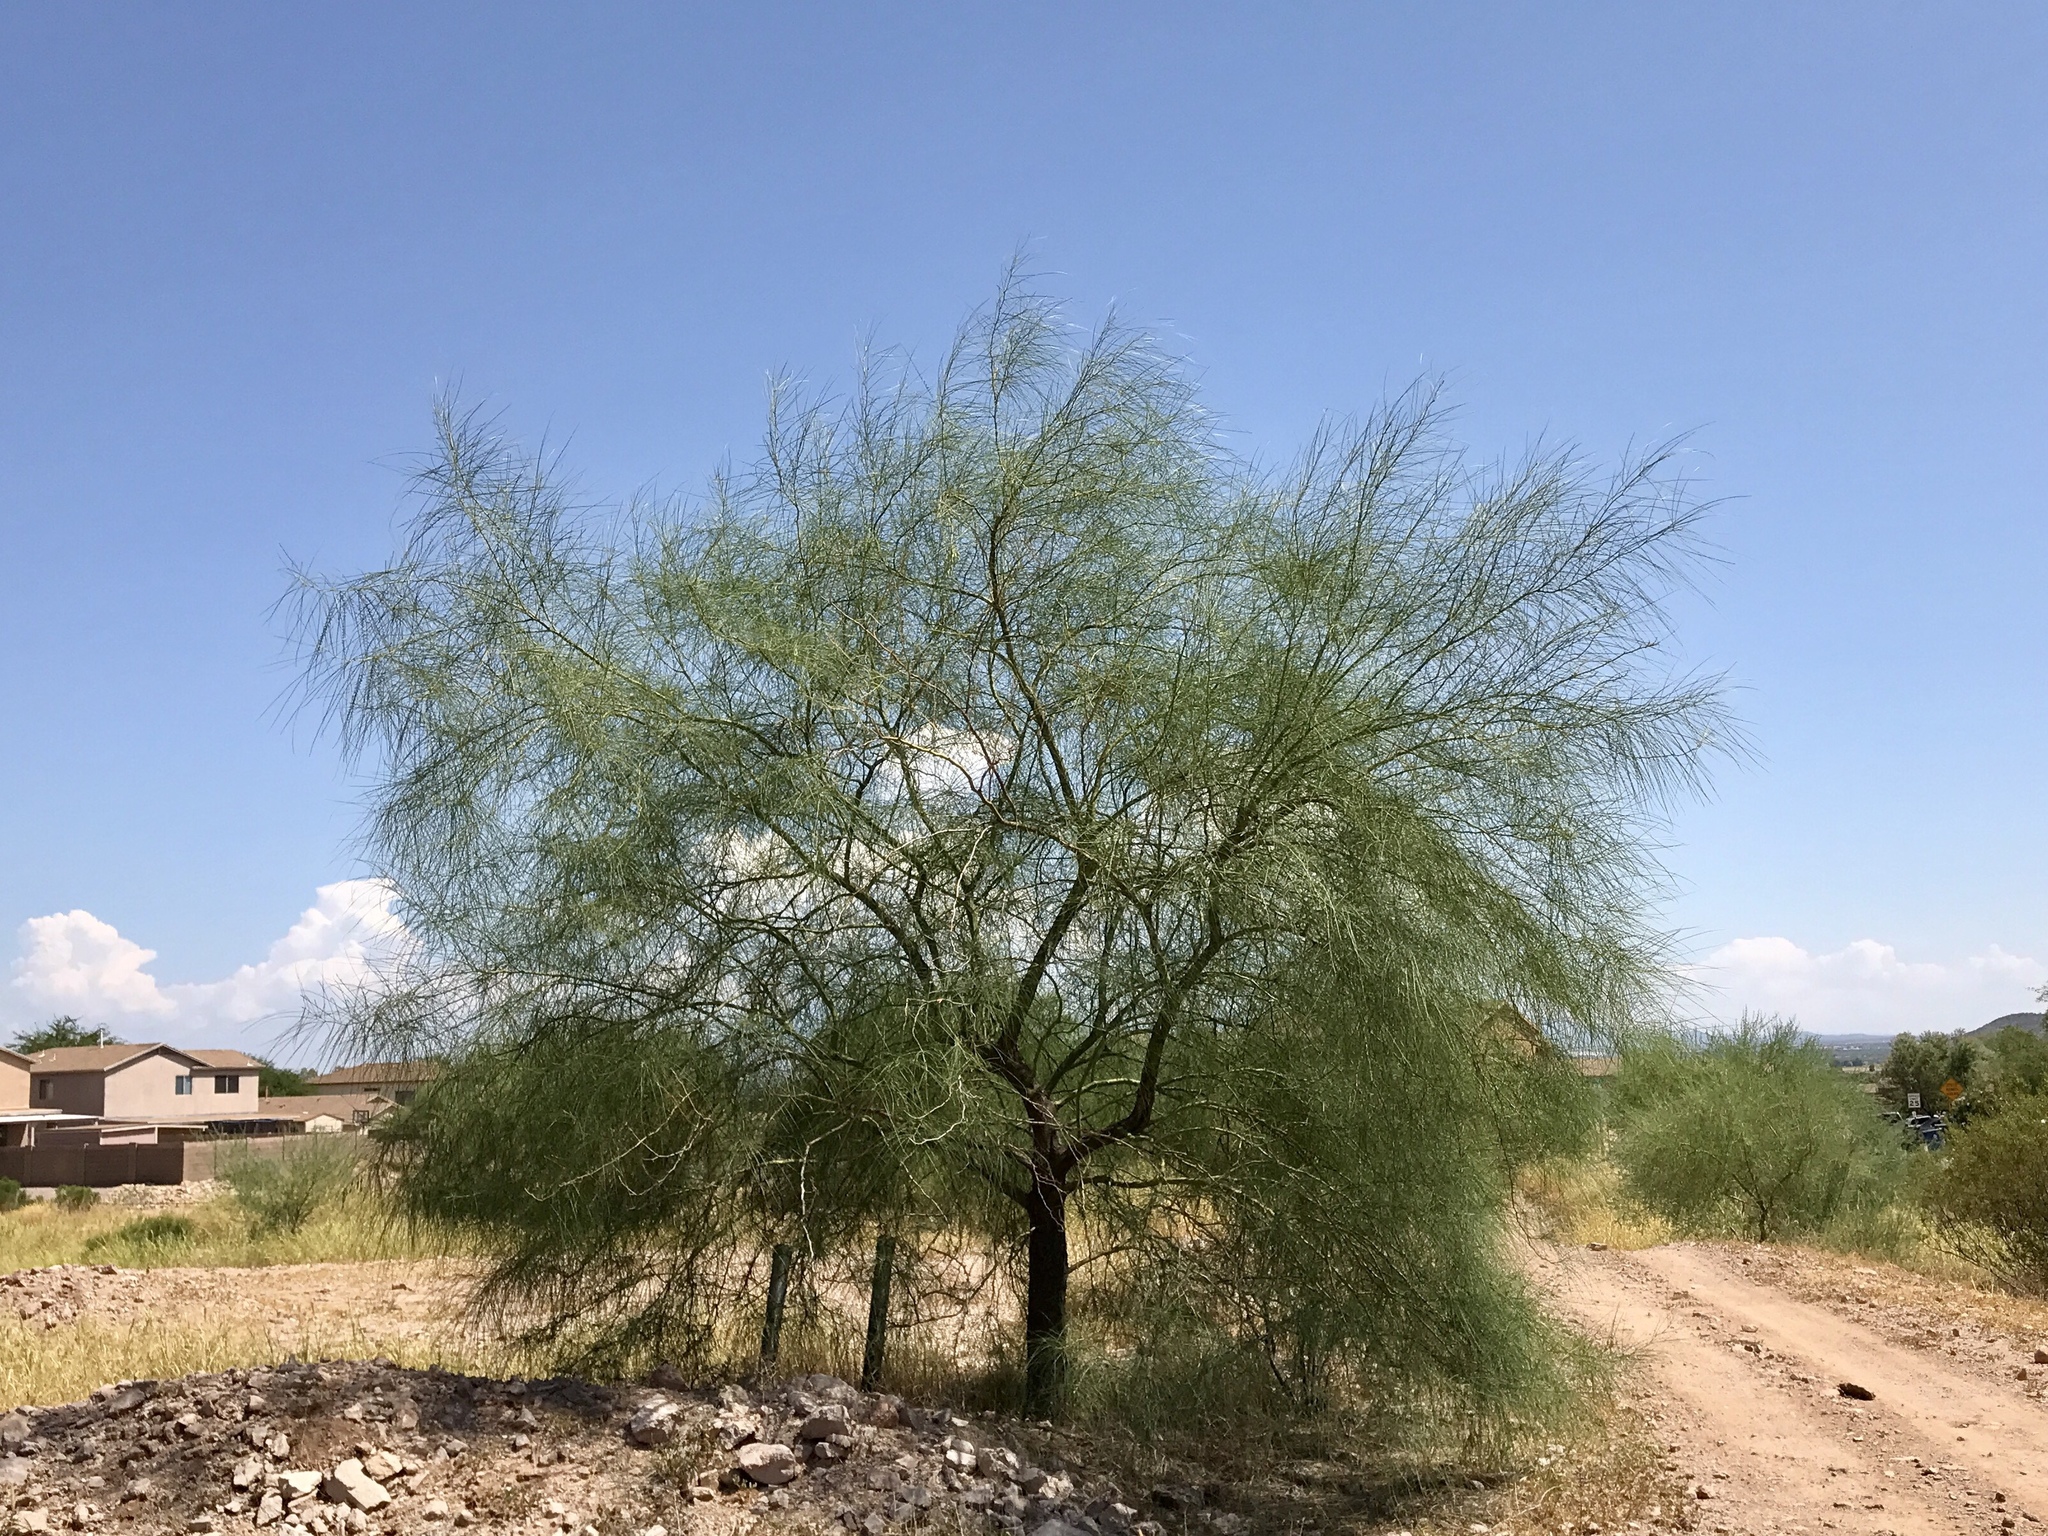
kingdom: Plantae
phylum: Tracheophyta
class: Magnoliopsida
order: Fabales
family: Fabaceae
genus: Parkinsonia
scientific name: Parkinsonia aculeata
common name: Jerusalem thorn
